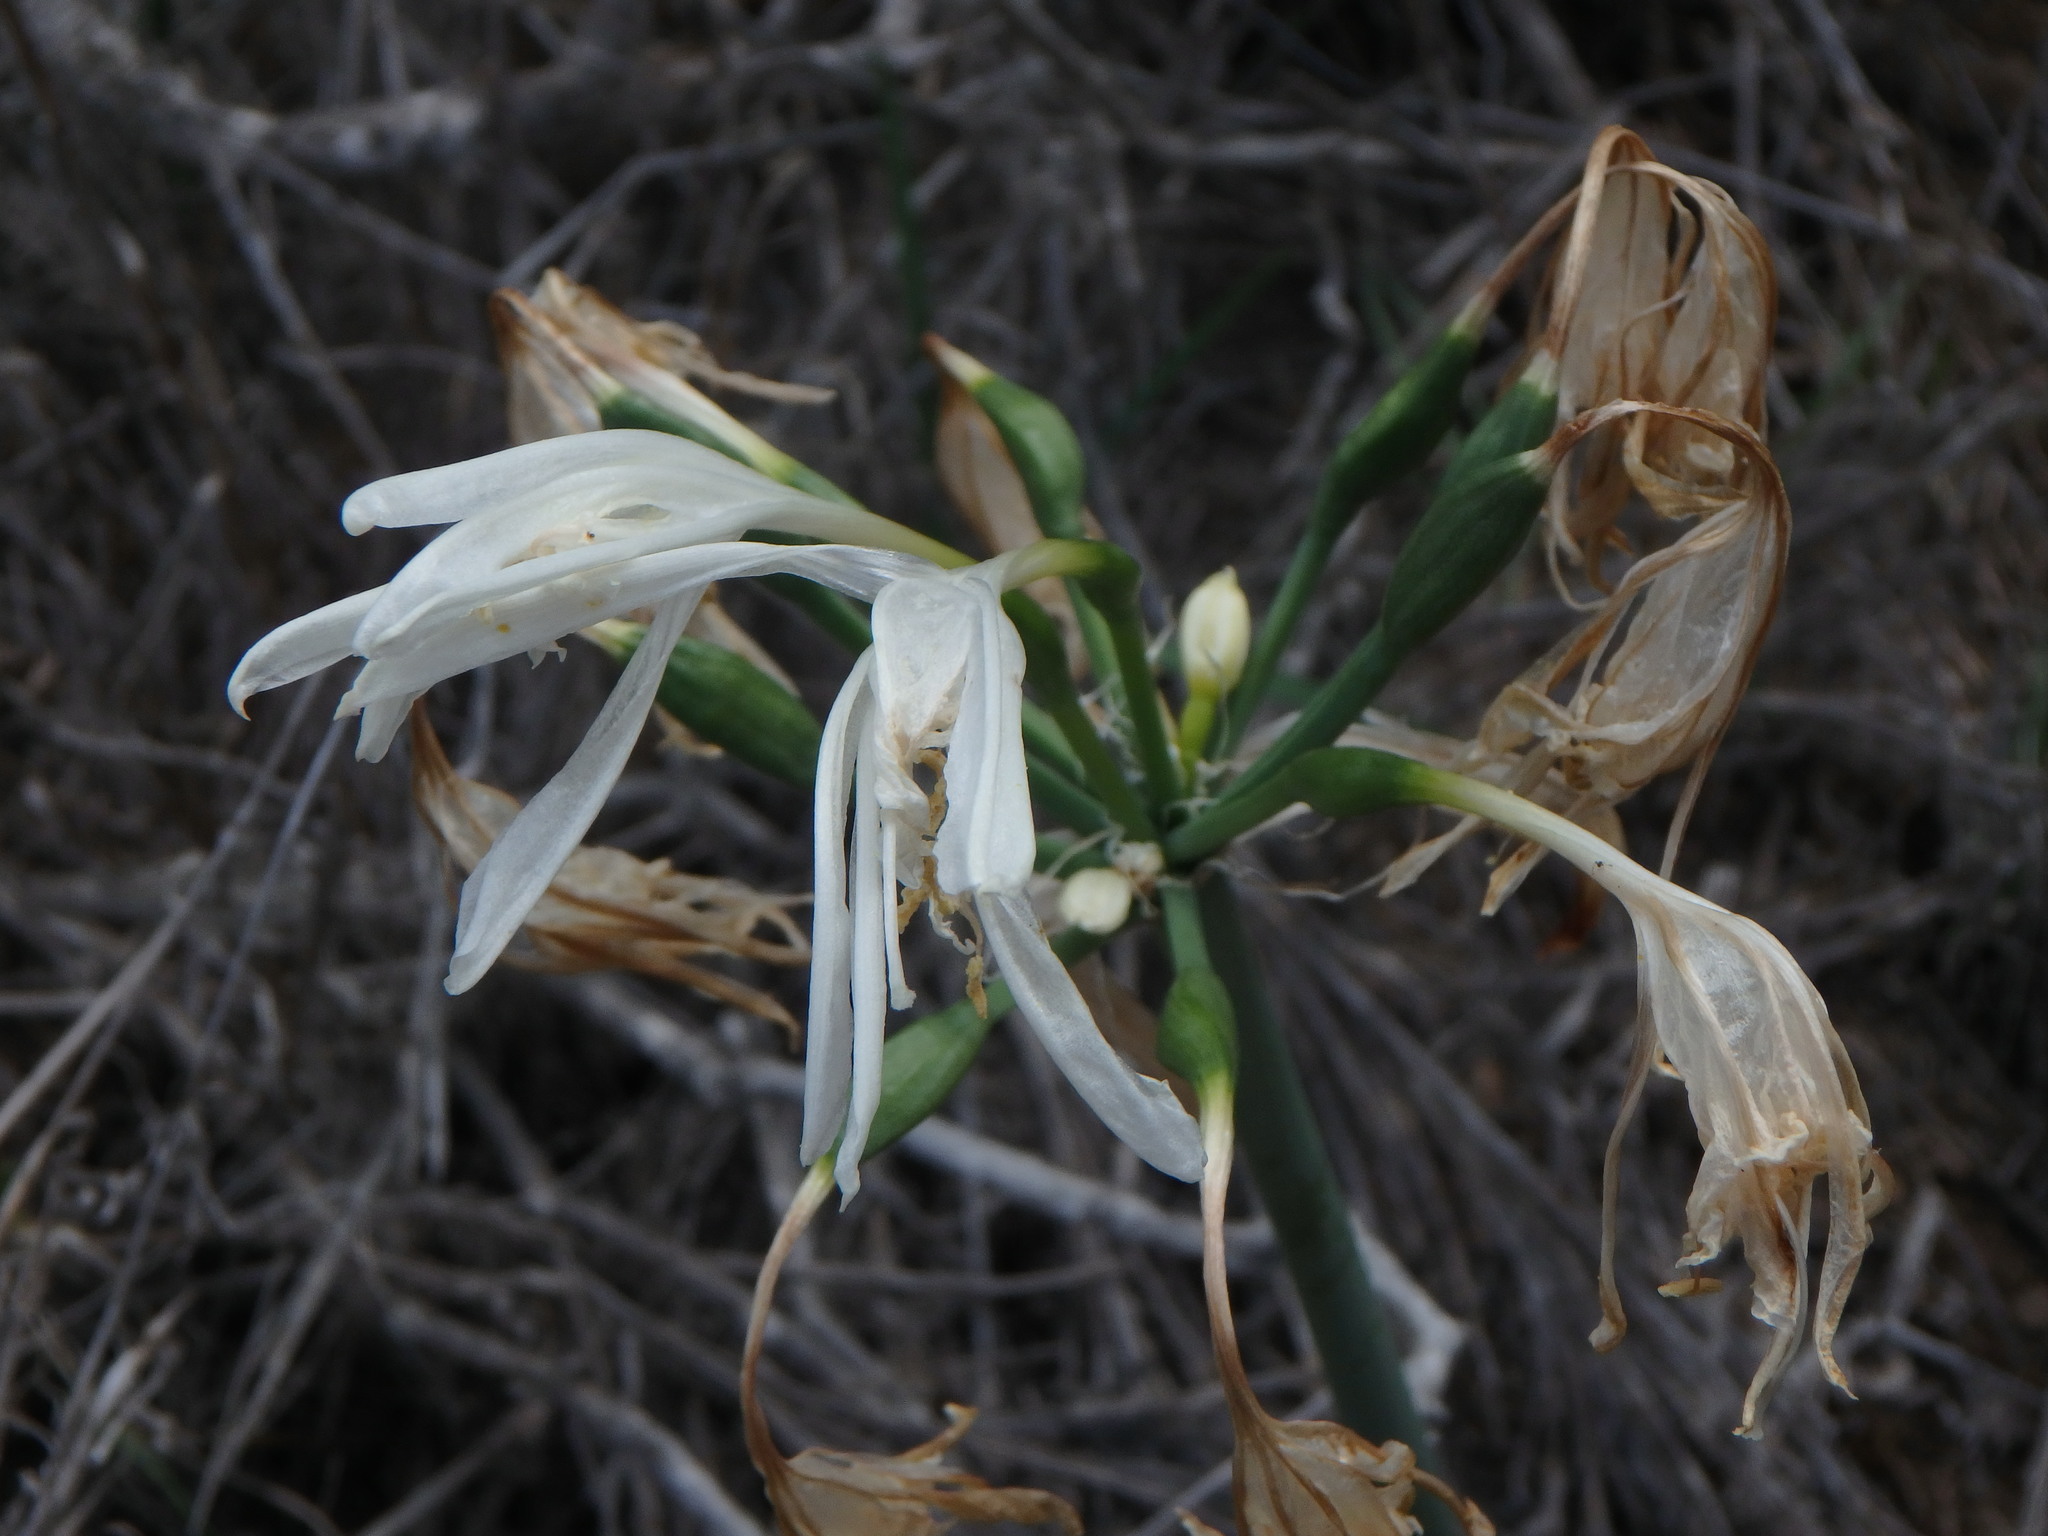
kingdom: Plantae
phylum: Tracheophyta
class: Liliopsida
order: Asparagales
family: Amaryllidaceae
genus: Pancratium
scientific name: Pancratium canariense
